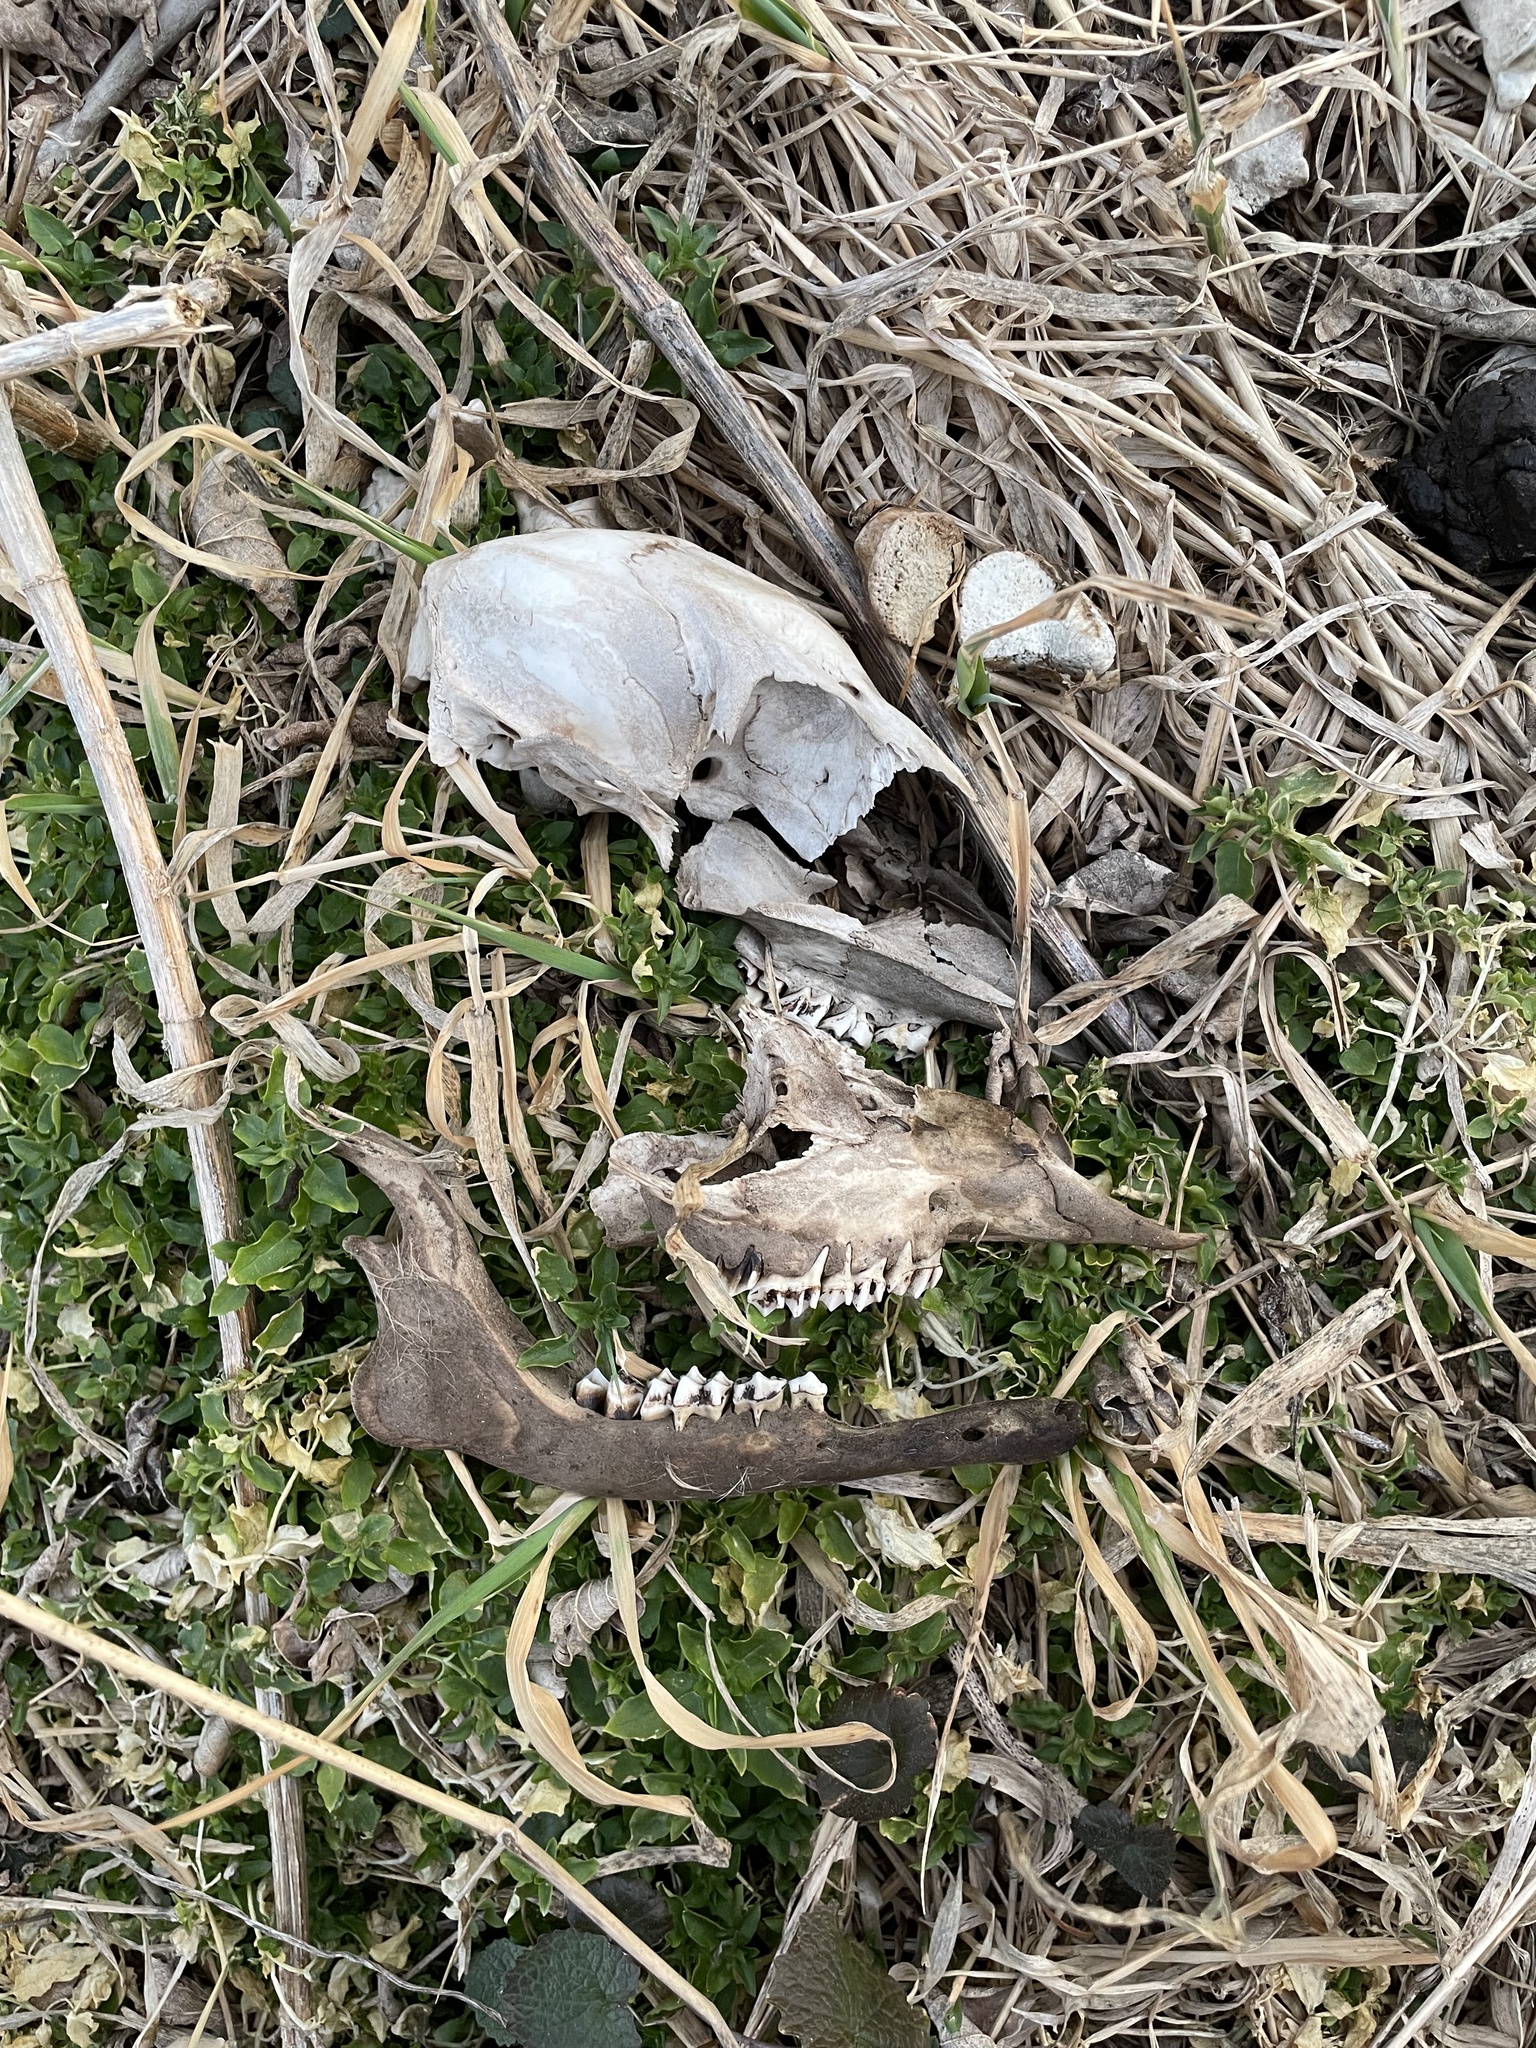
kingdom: Animalia
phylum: Chordata
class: Mammalia
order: Artiodactyla
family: Cervidae
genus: Odocoileus
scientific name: Odocoileus virginianus
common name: White-tailed deer
